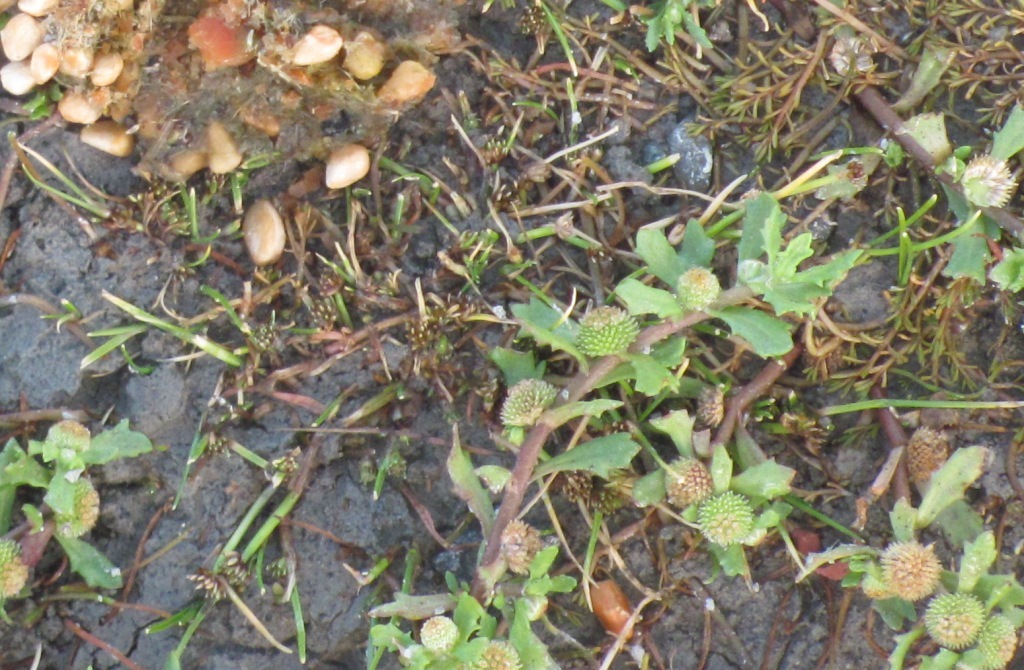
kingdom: Plantae
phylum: Tracheophyta
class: Liliopsida
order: Poales
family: Cyperaceae
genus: Isolepis
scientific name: Isolepis basilaris
